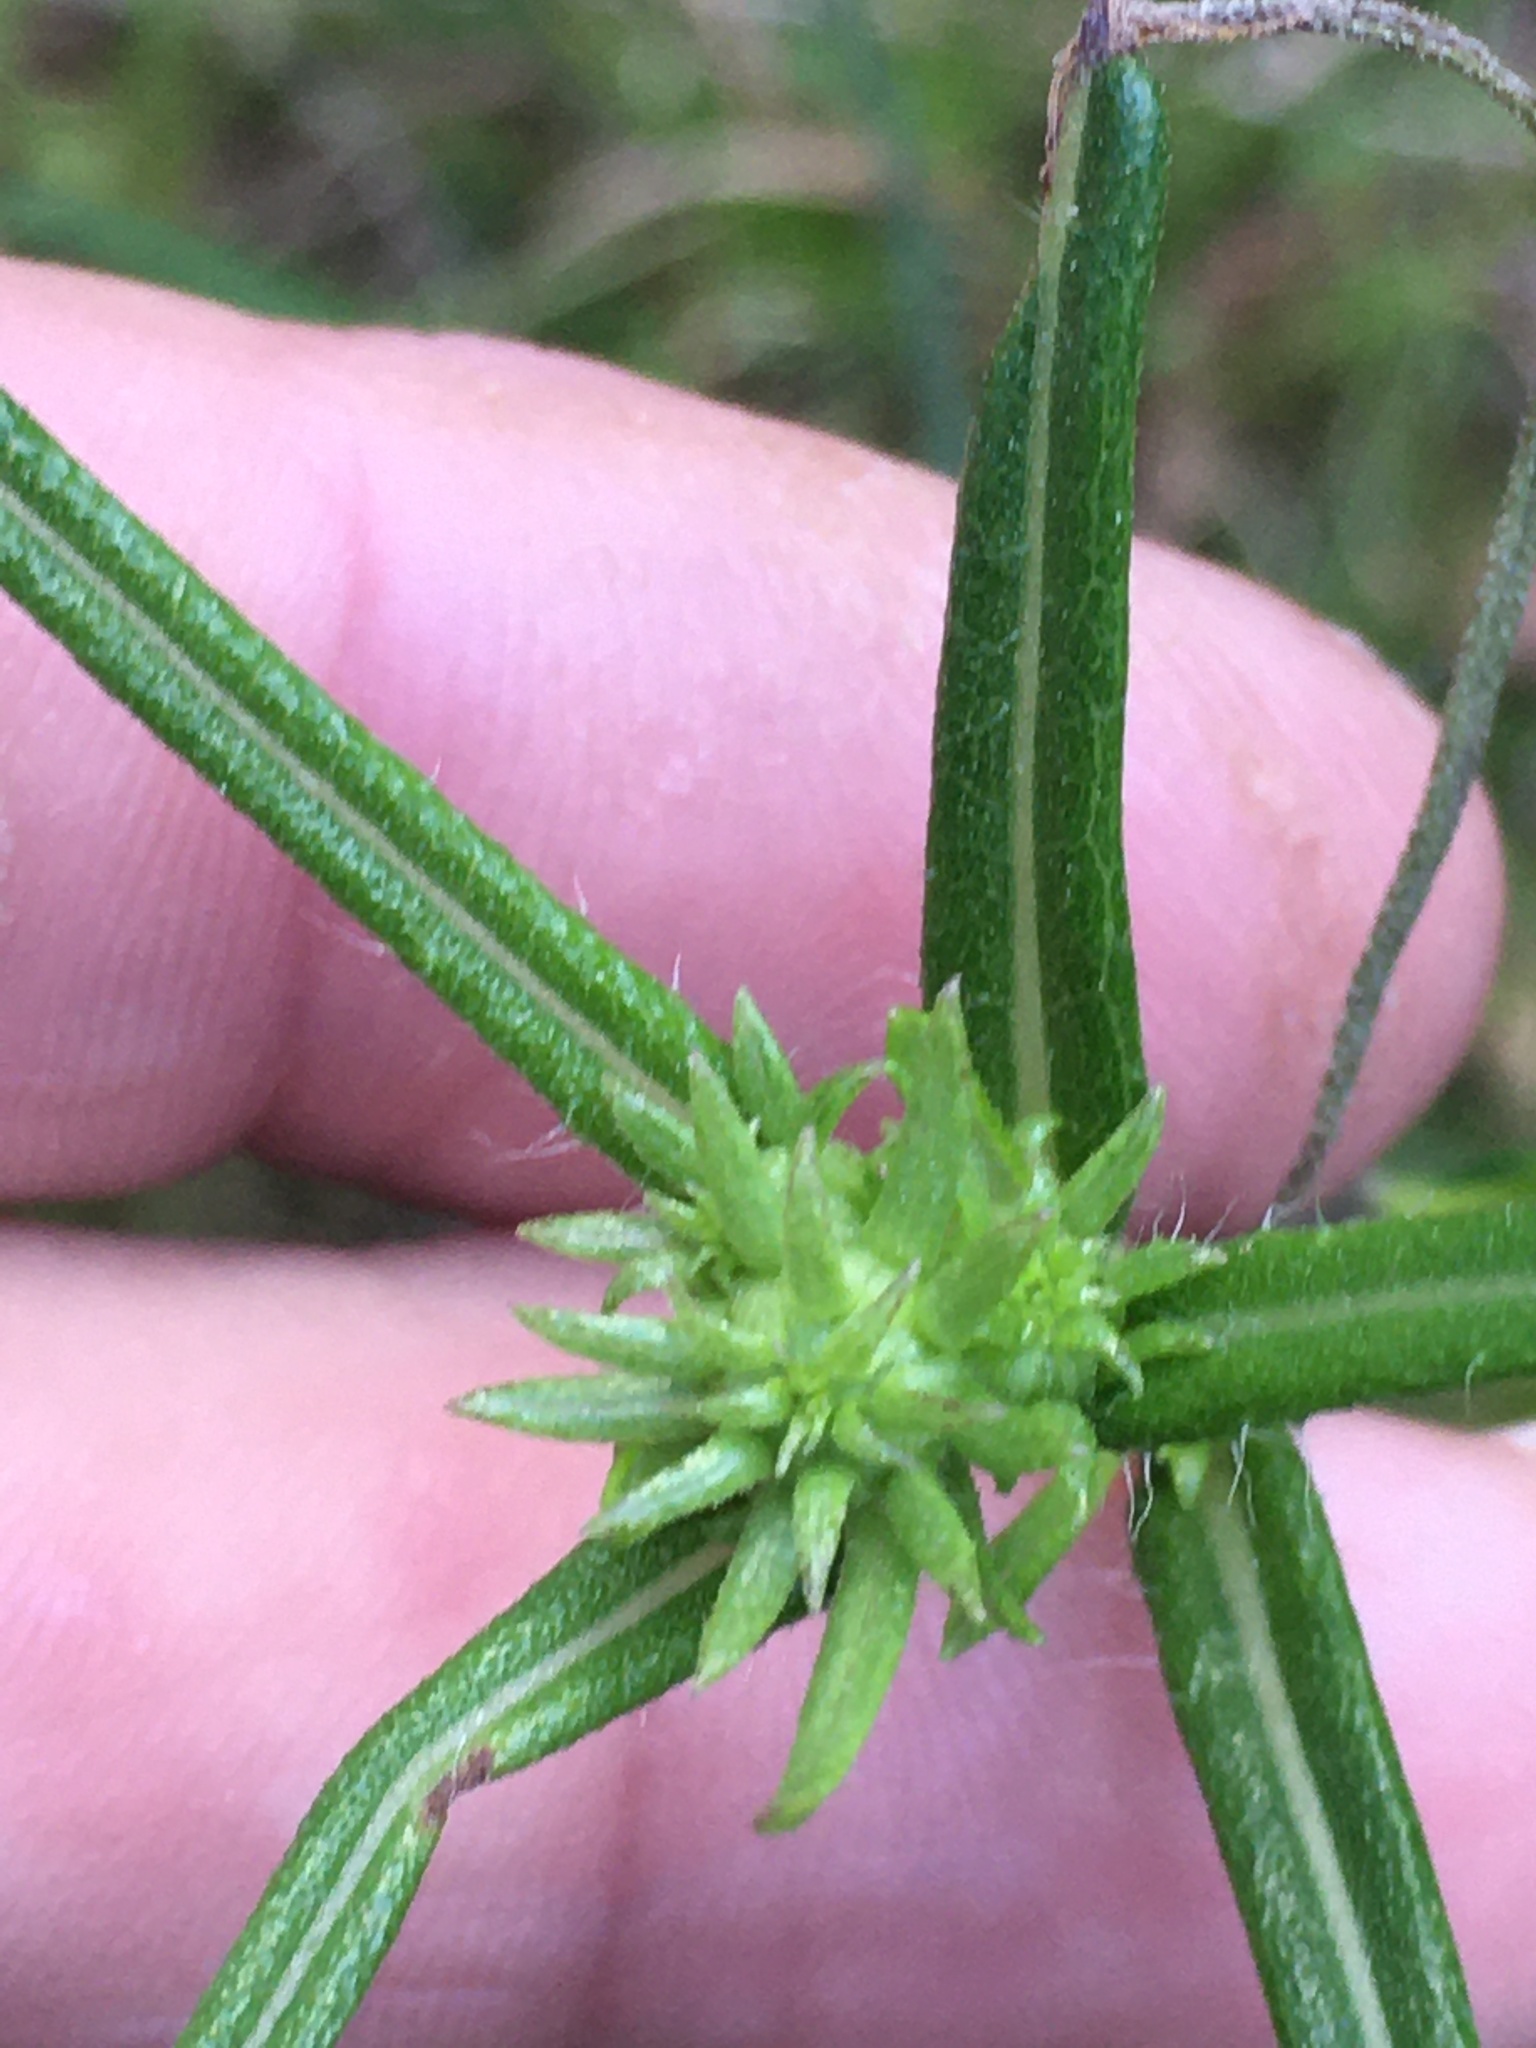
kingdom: Plantae
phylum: Tracheophyta
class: Magnoliopsida
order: Asterales
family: Asteraceae
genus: Helianthus
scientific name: Helianthus angustifolius
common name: Swamp sunflower
